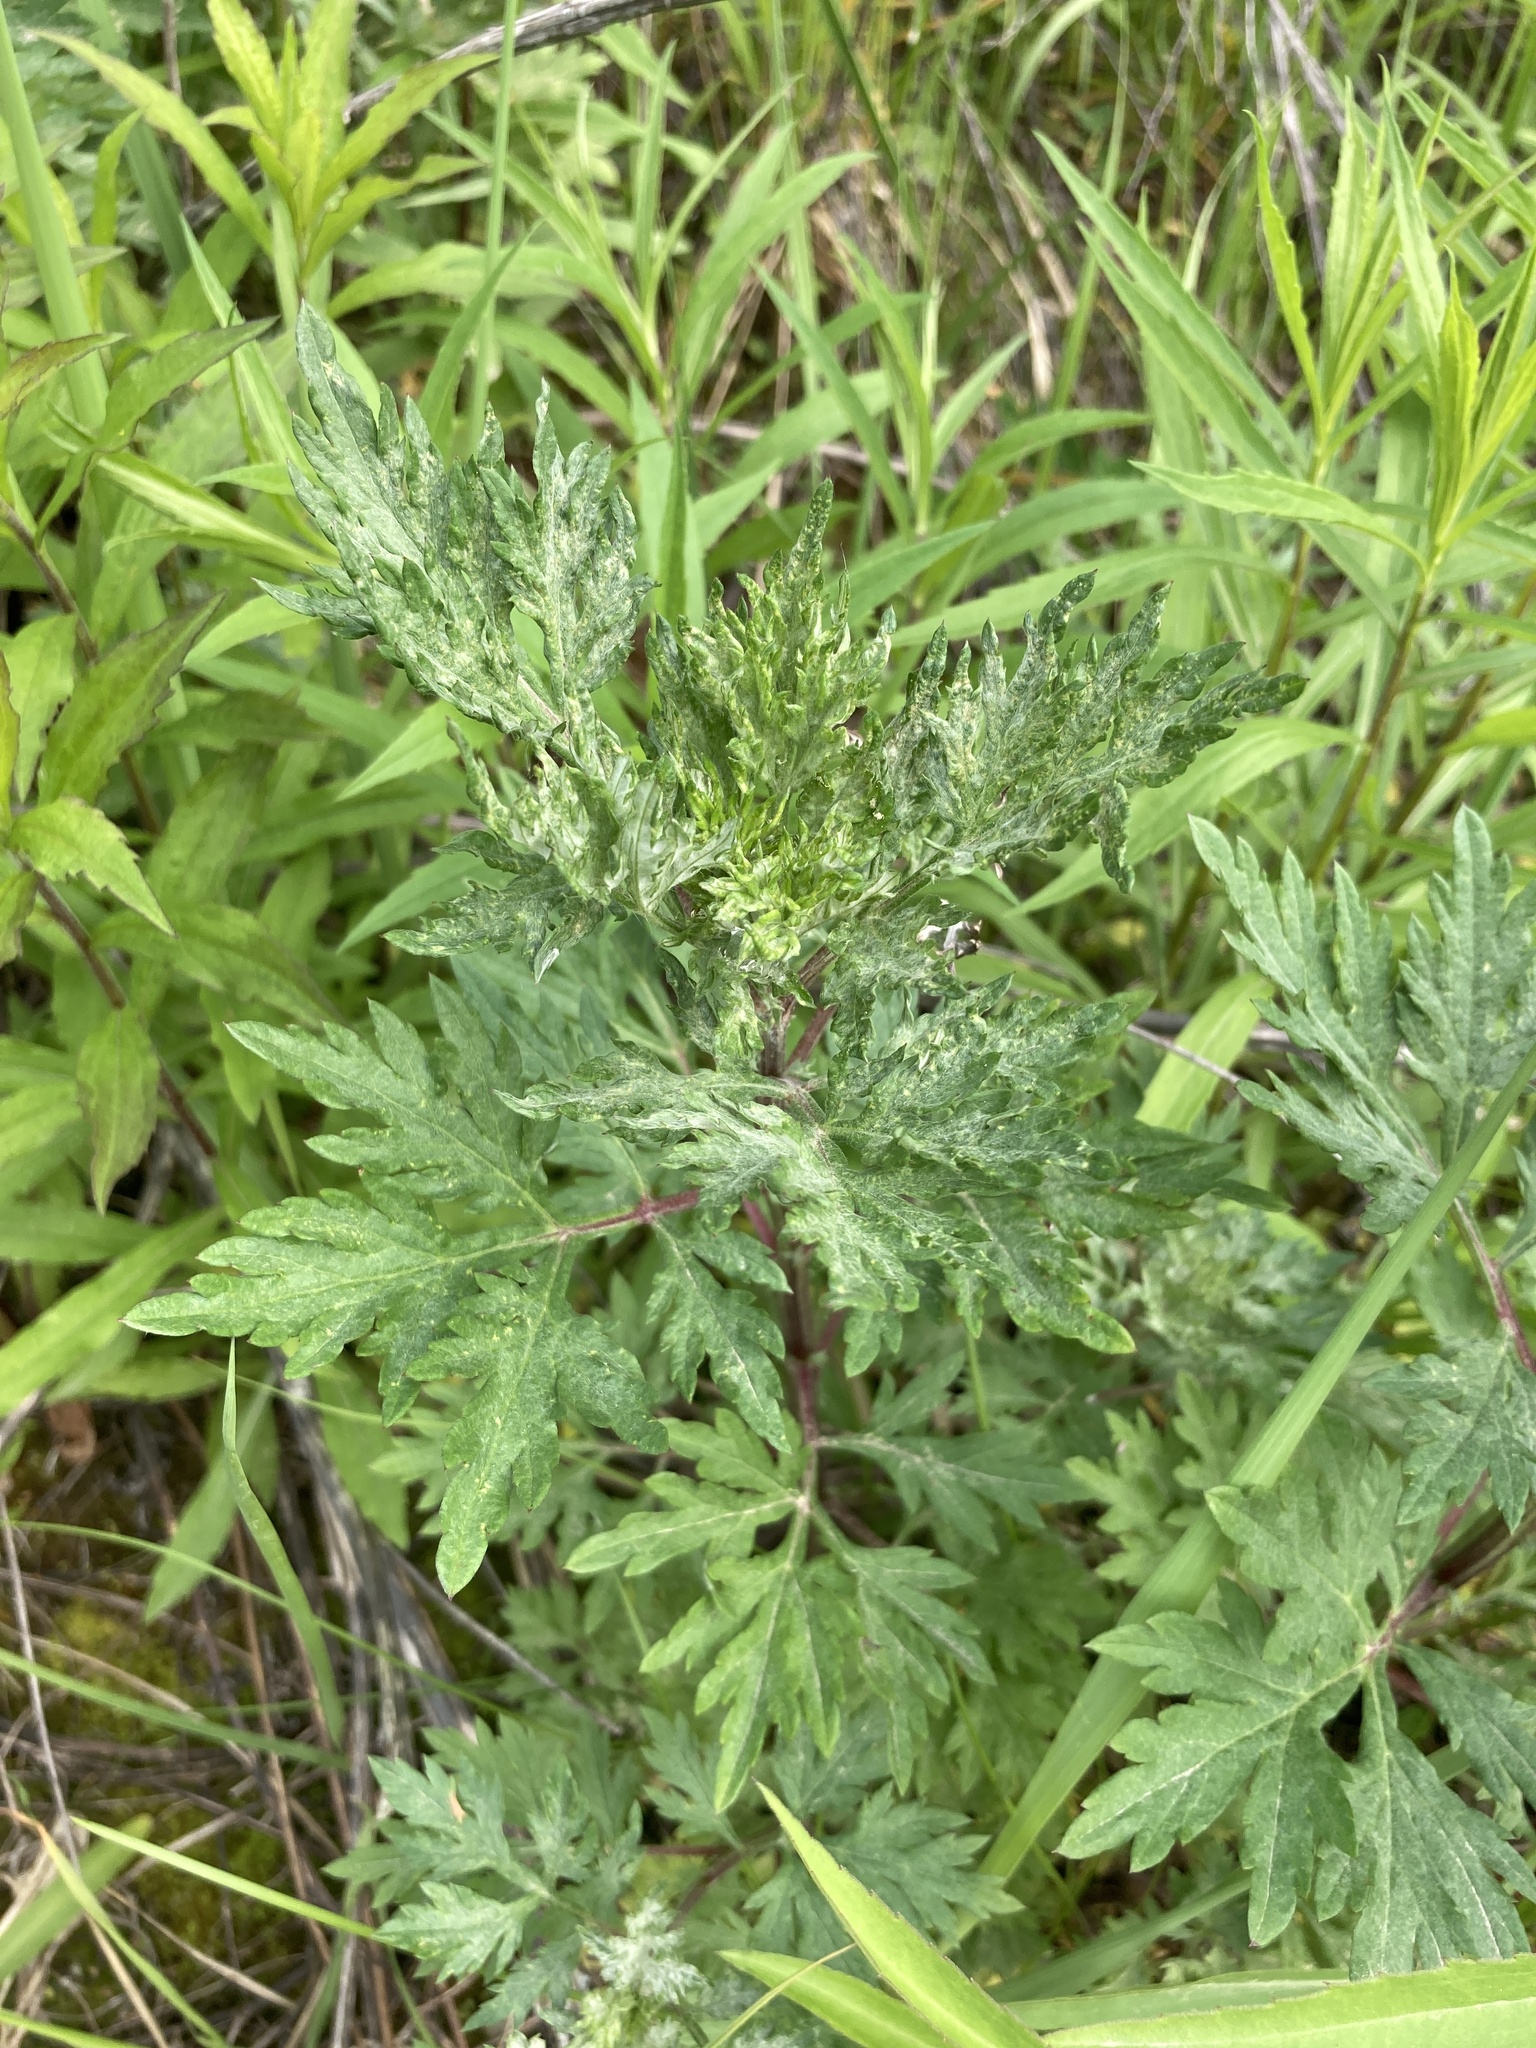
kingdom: Plantae
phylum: Tracheophyta
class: Magnoliopsida
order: Asterales
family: Asteraceae
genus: Artemisia
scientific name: Artemisia vulgaris
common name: Mugwort
